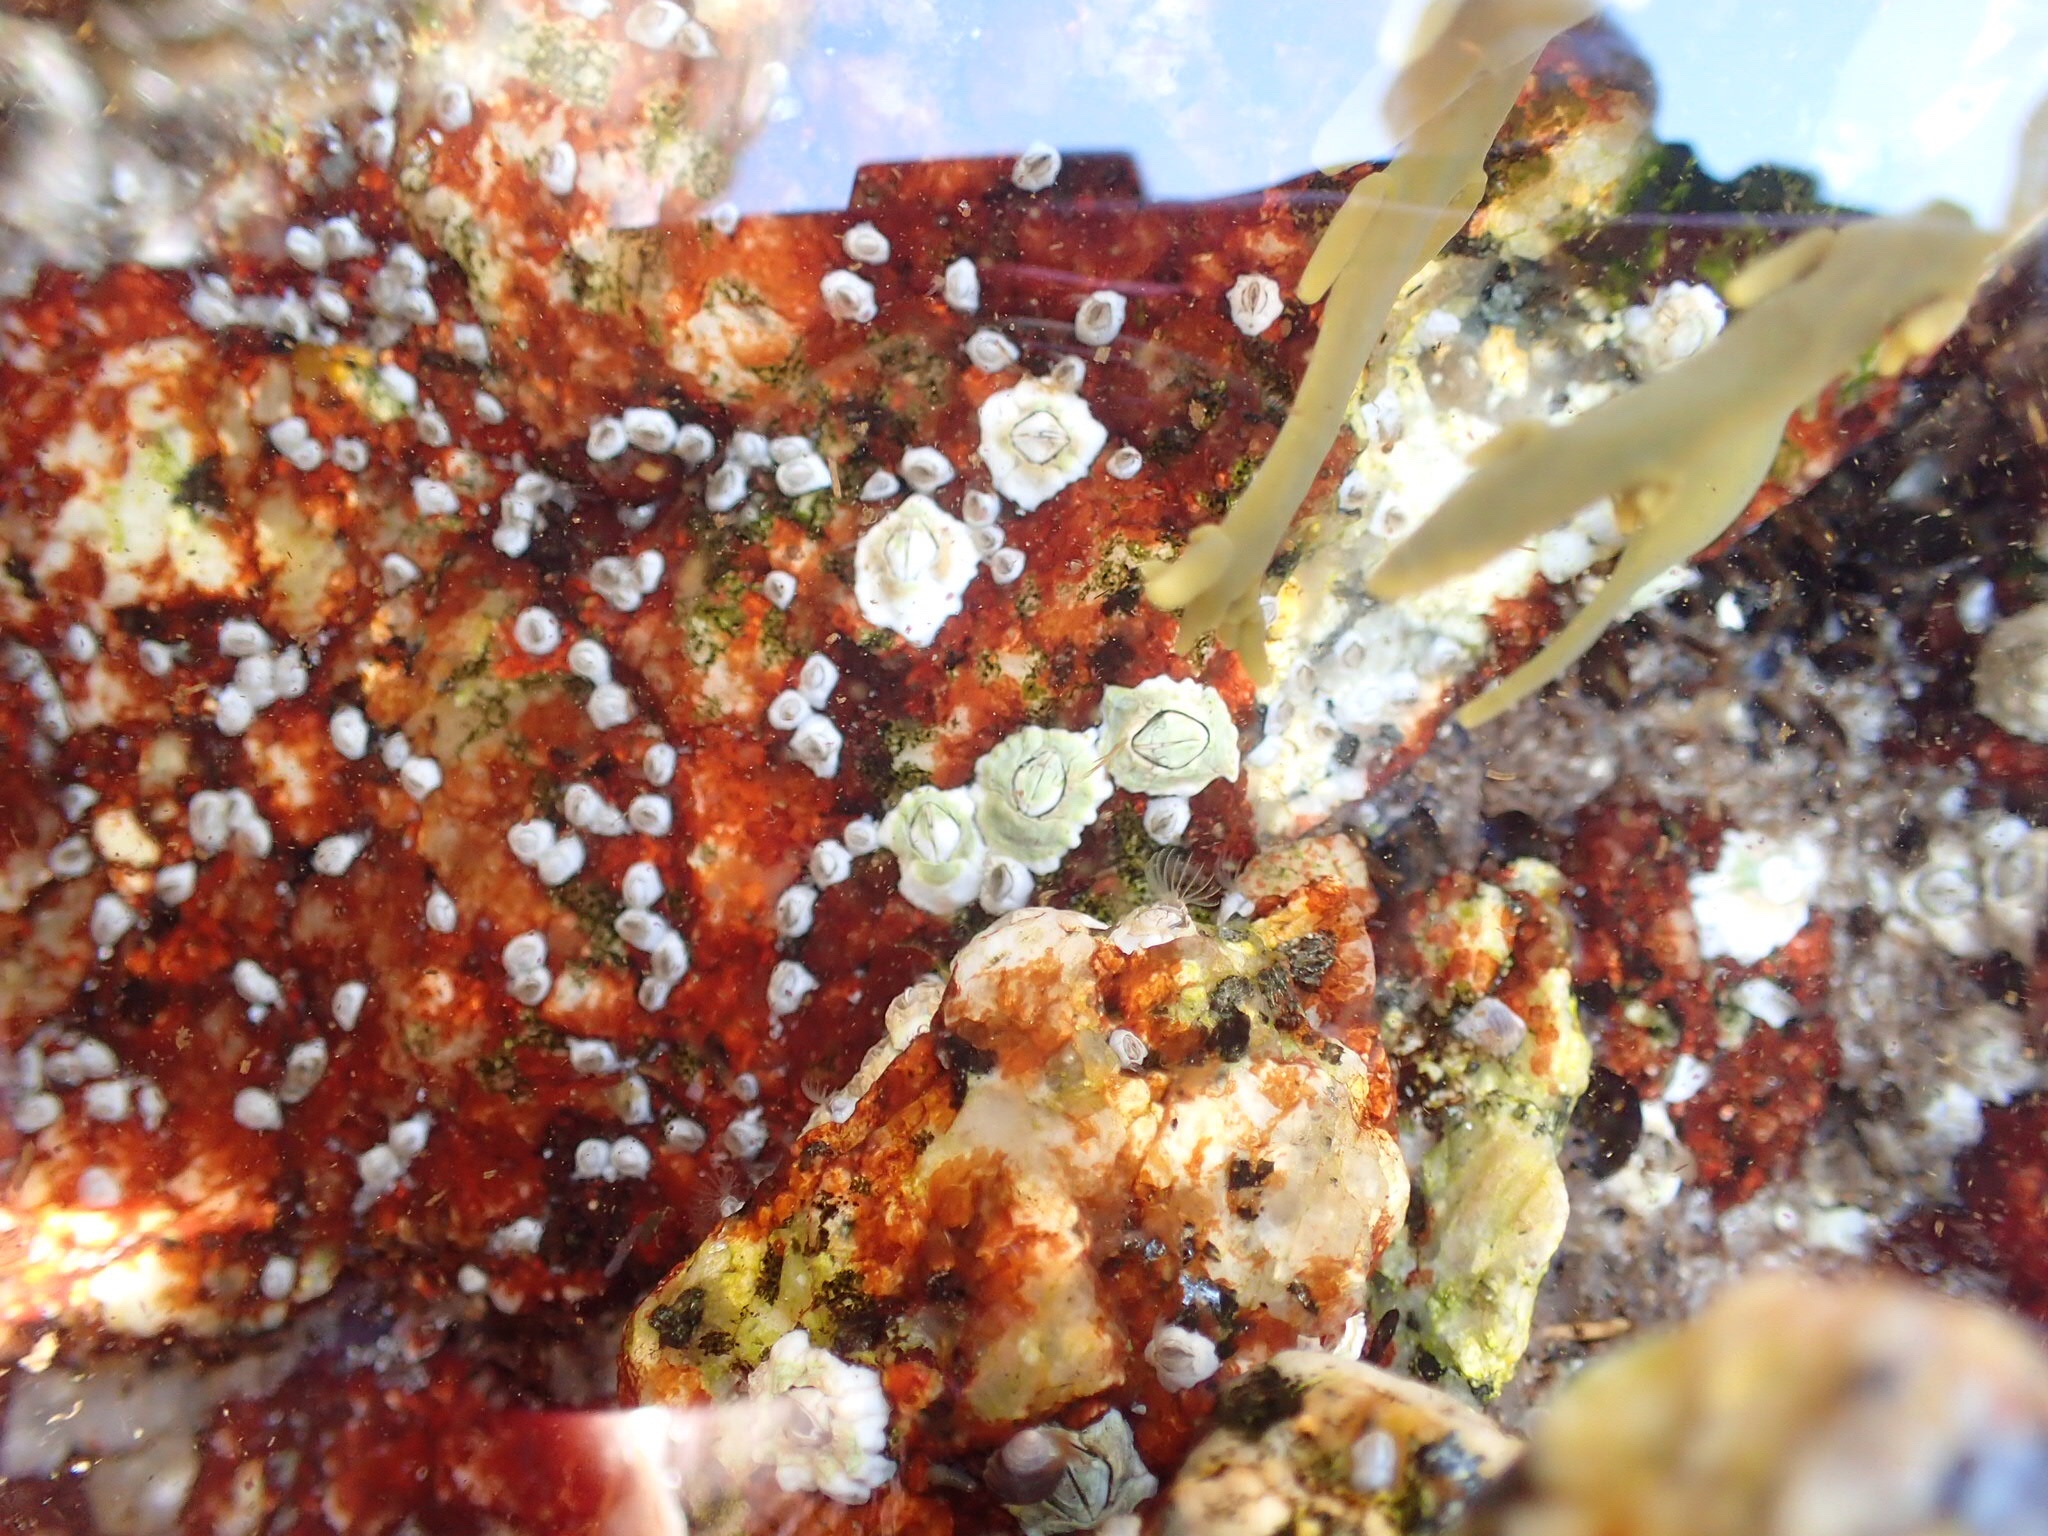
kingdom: Animalia
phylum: Arthropoda
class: Maxillopoda
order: Sessilia
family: Archaeobalanidae
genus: Semibalanus
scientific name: Semibalanus balanoides
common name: Acorn barnacle
